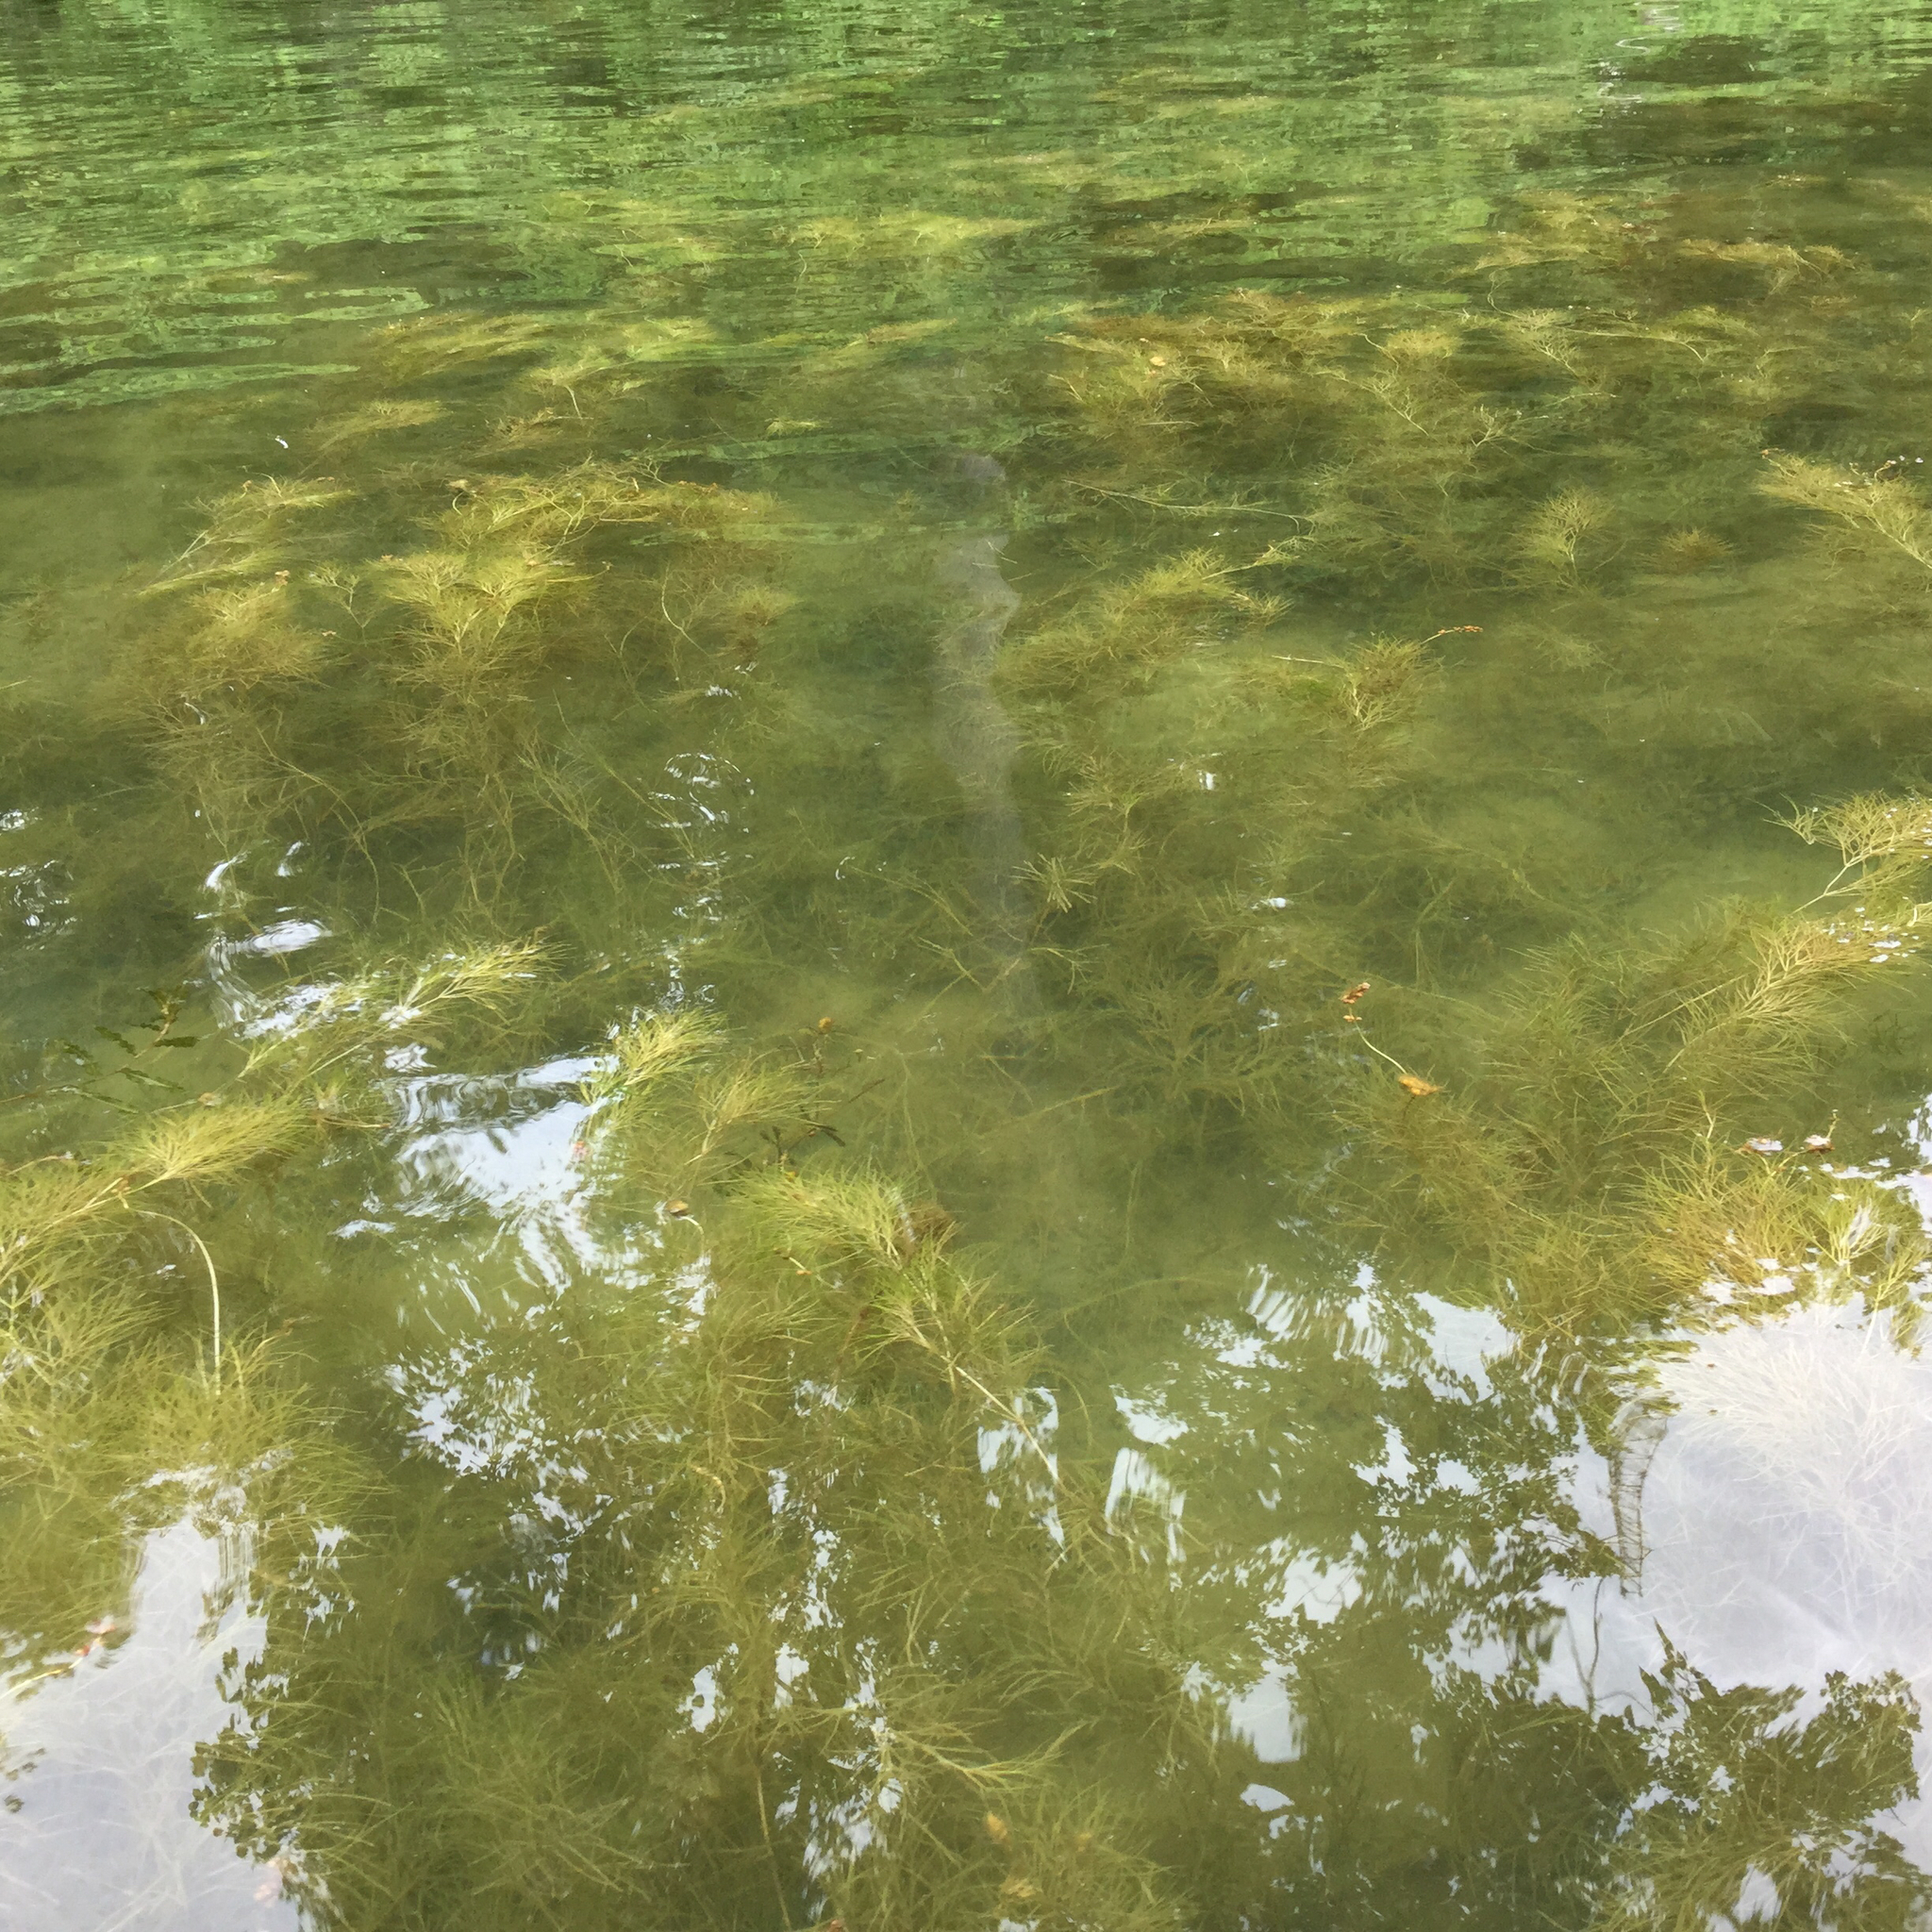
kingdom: Plantae
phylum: Tracheophyta
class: Liliopsida
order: Alismatales
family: Potamogetonaceae
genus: Stuckenia
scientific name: Stuckenia pectinata
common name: Sago pondweed
